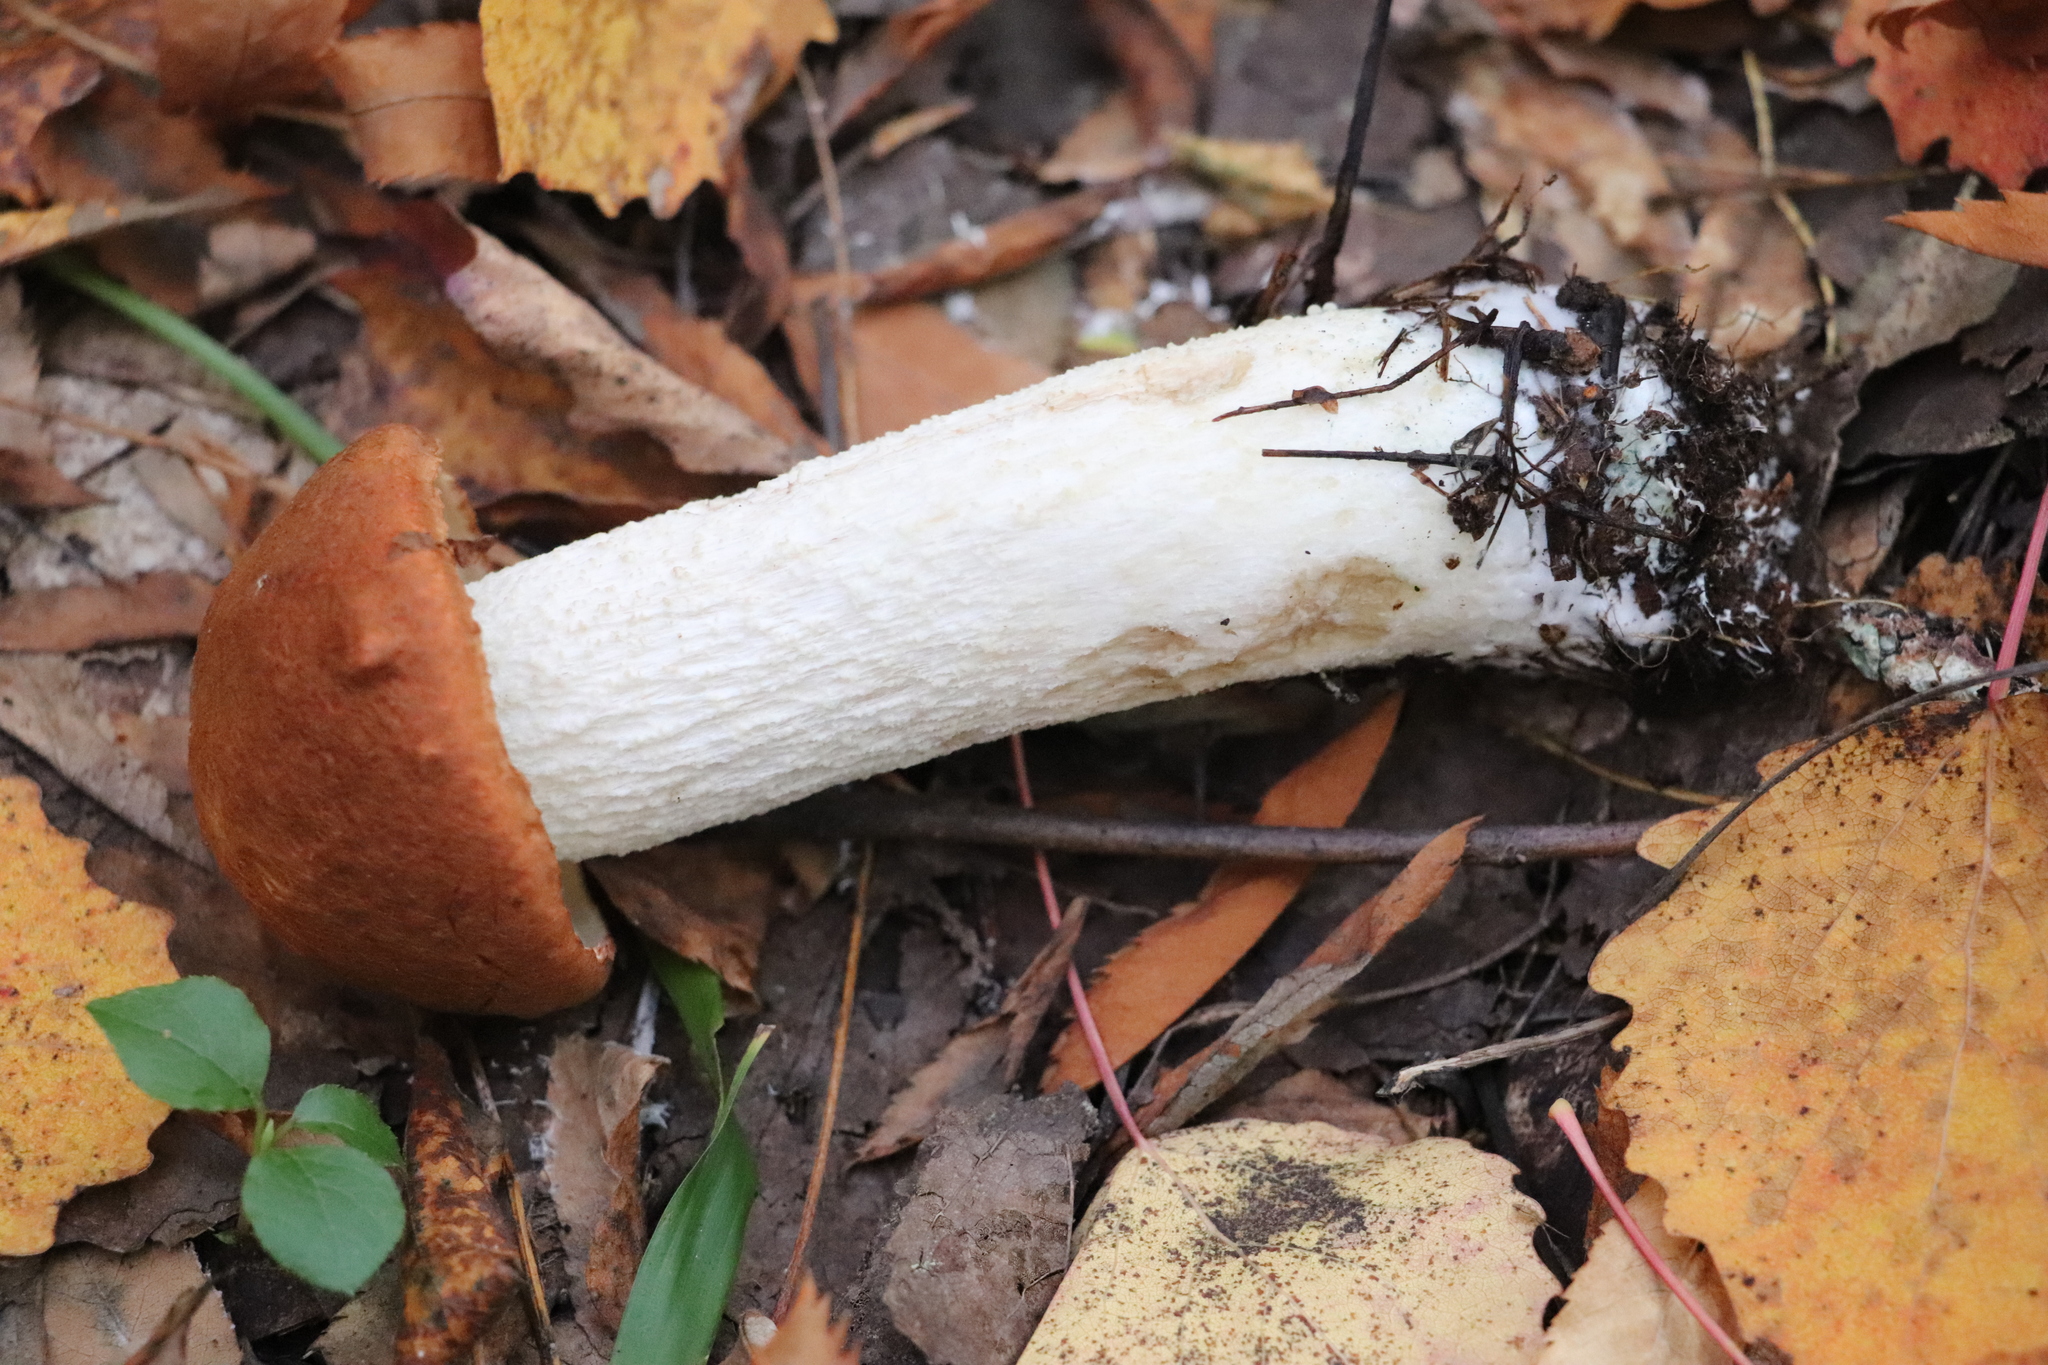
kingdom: Fungi
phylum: Basidiomycota
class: Agaricomycetes
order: Boletales
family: Boletaceae
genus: Leccinum
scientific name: Leccinum albostipitatum
